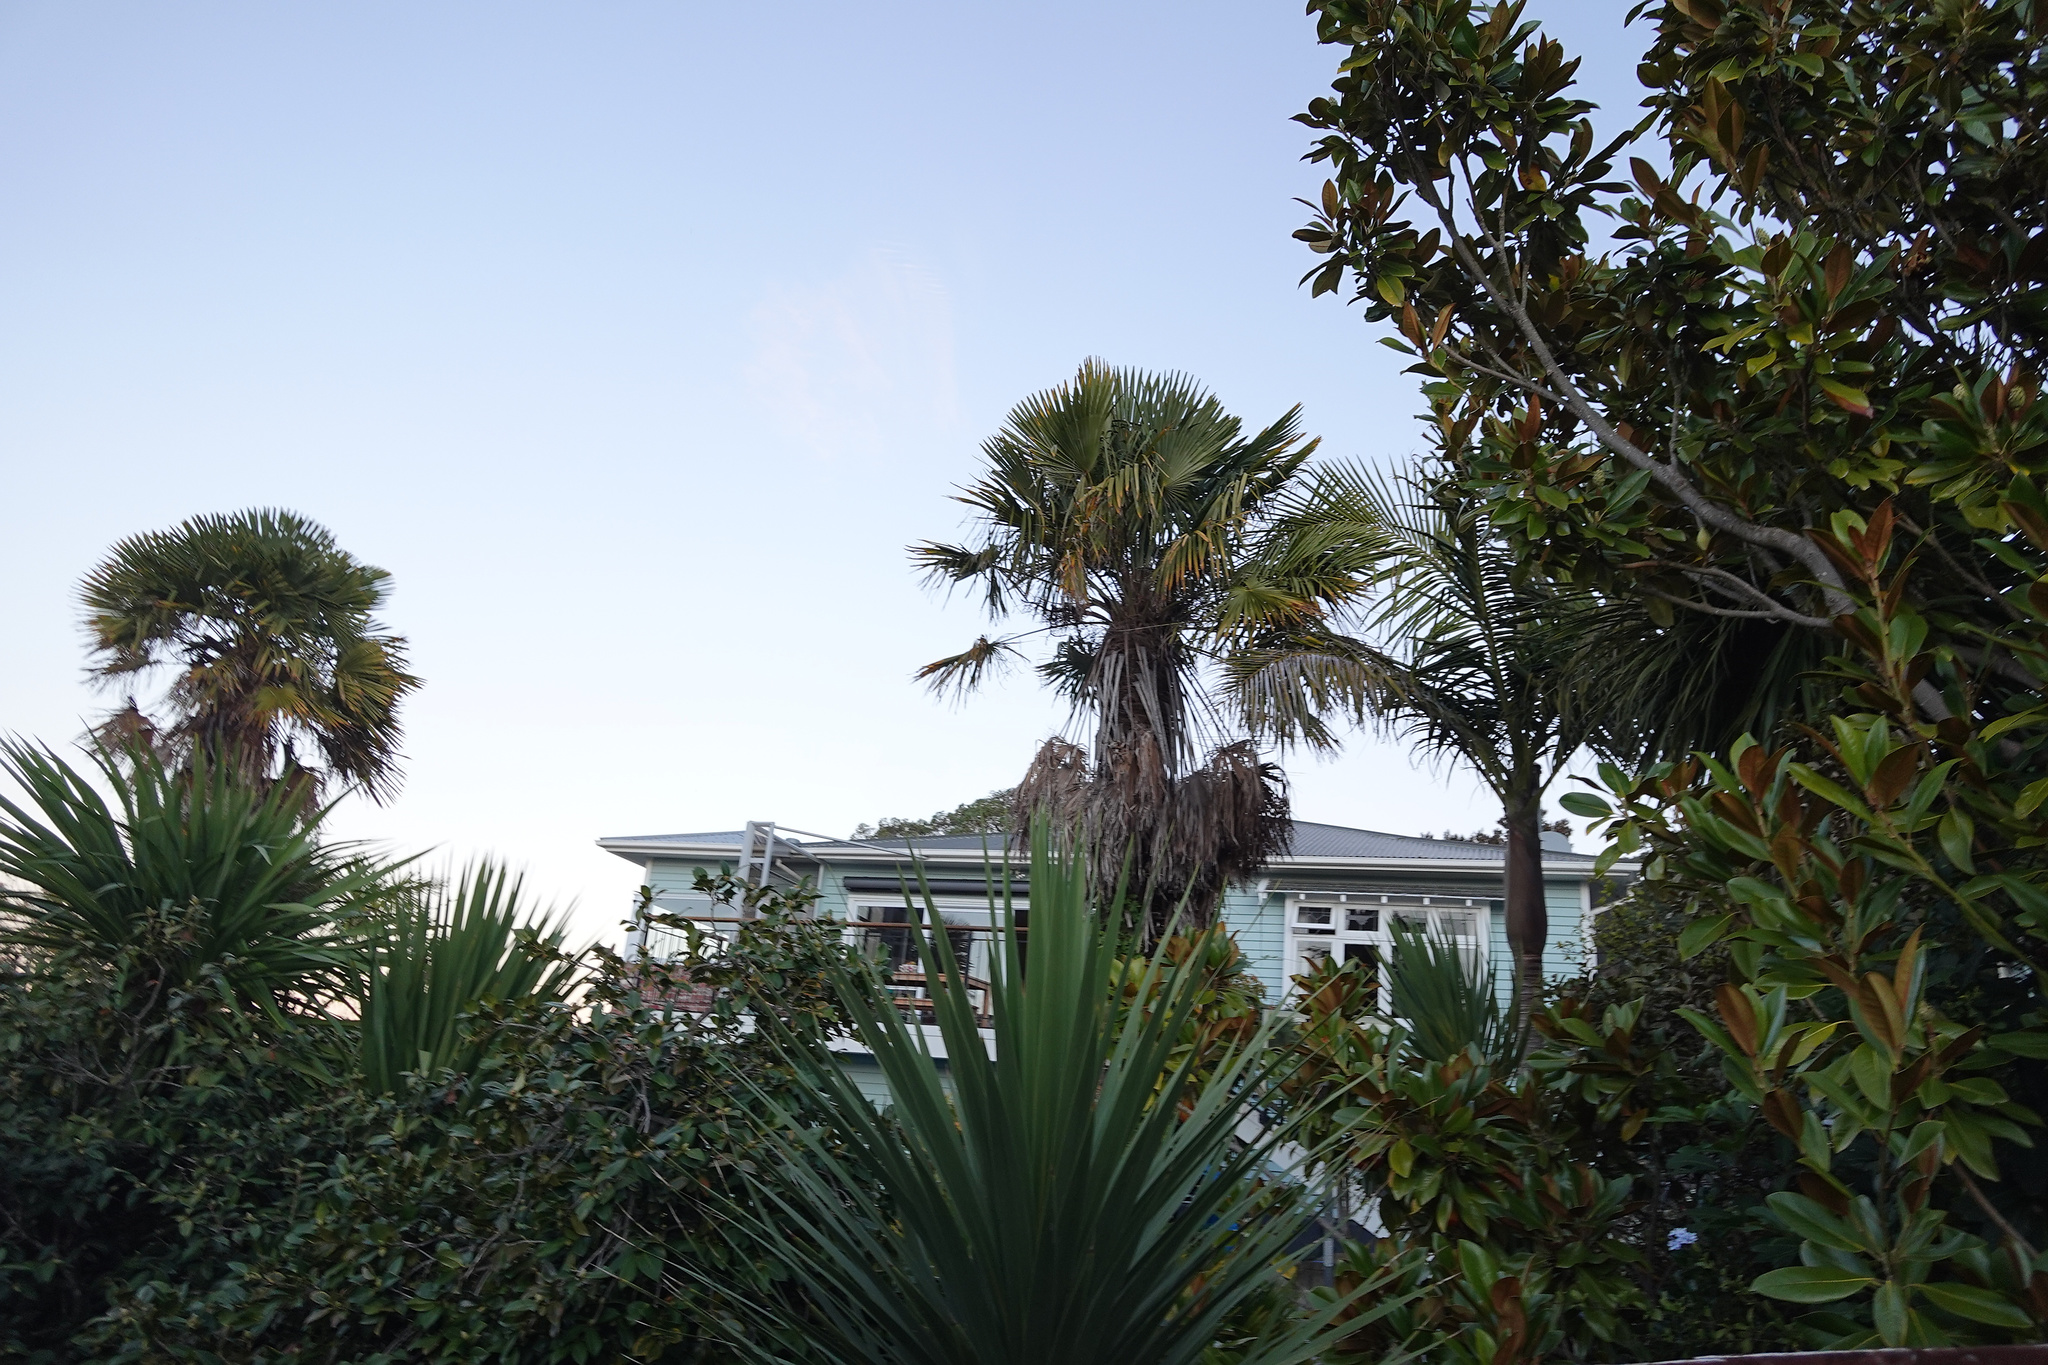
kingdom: Plantae
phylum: Tracheophyta
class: Liliopsida
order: Arecales
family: Arecaceae
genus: Trachycarpus
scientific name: Trachycarpus fortunei
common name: Chusan palm
